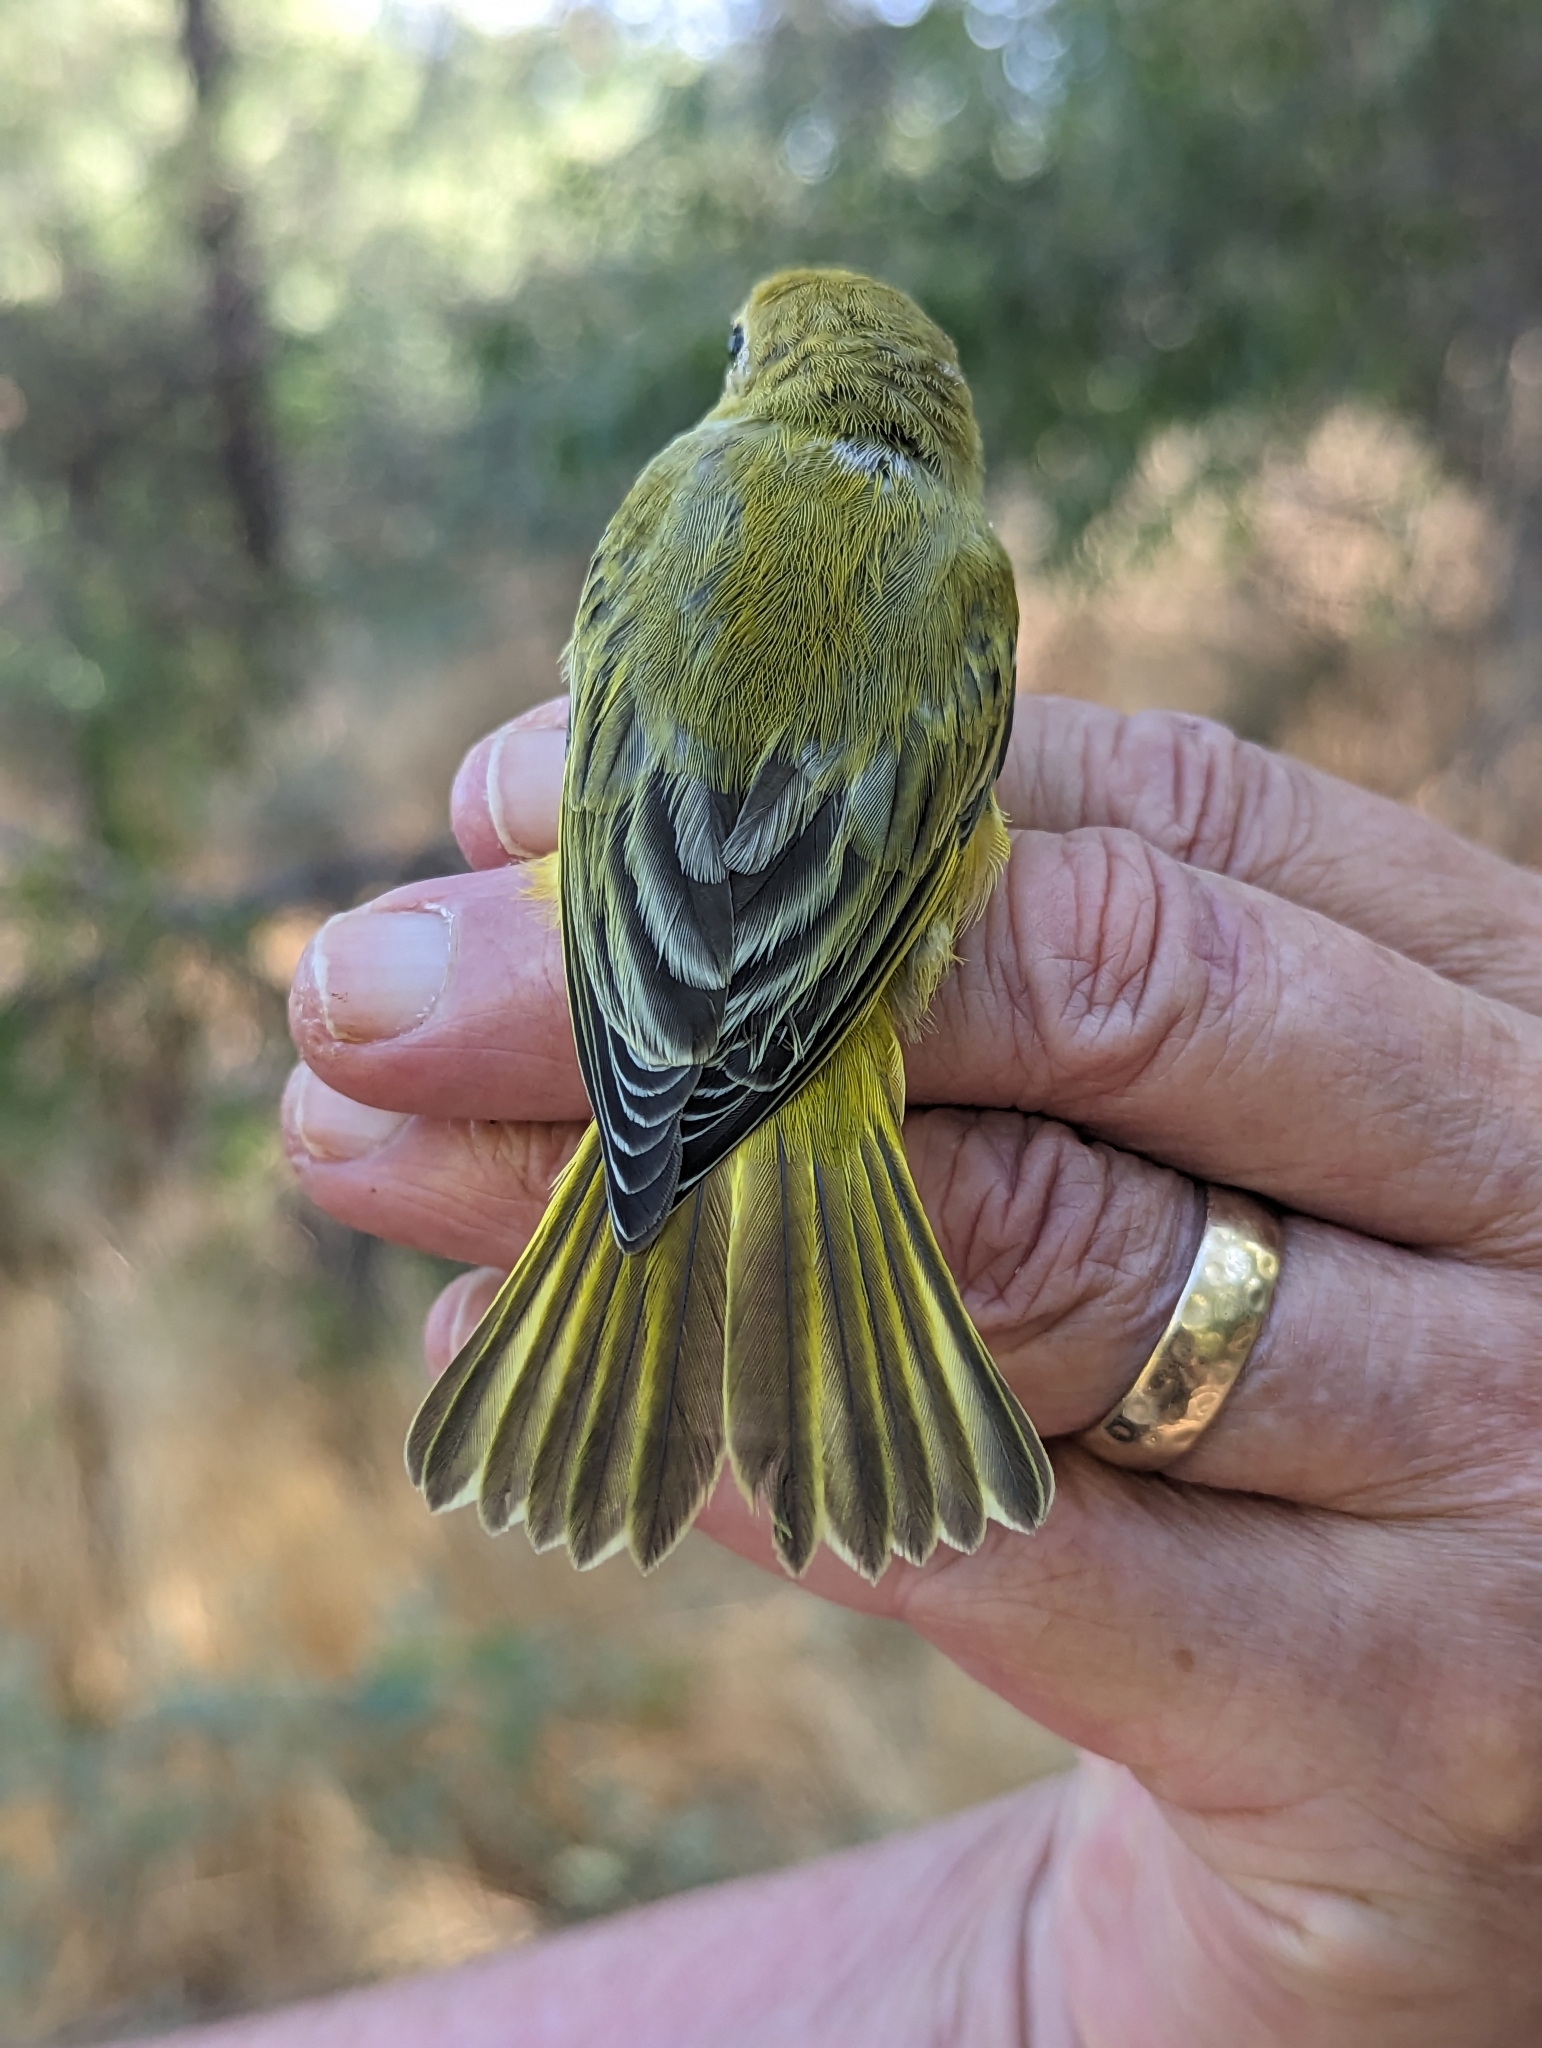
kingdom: Animalia
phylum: Chordata
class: Aves
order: Passeriformes
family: Parulidae
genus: Setophaga
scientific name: Setophaga petechia
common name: Yellow warbler
